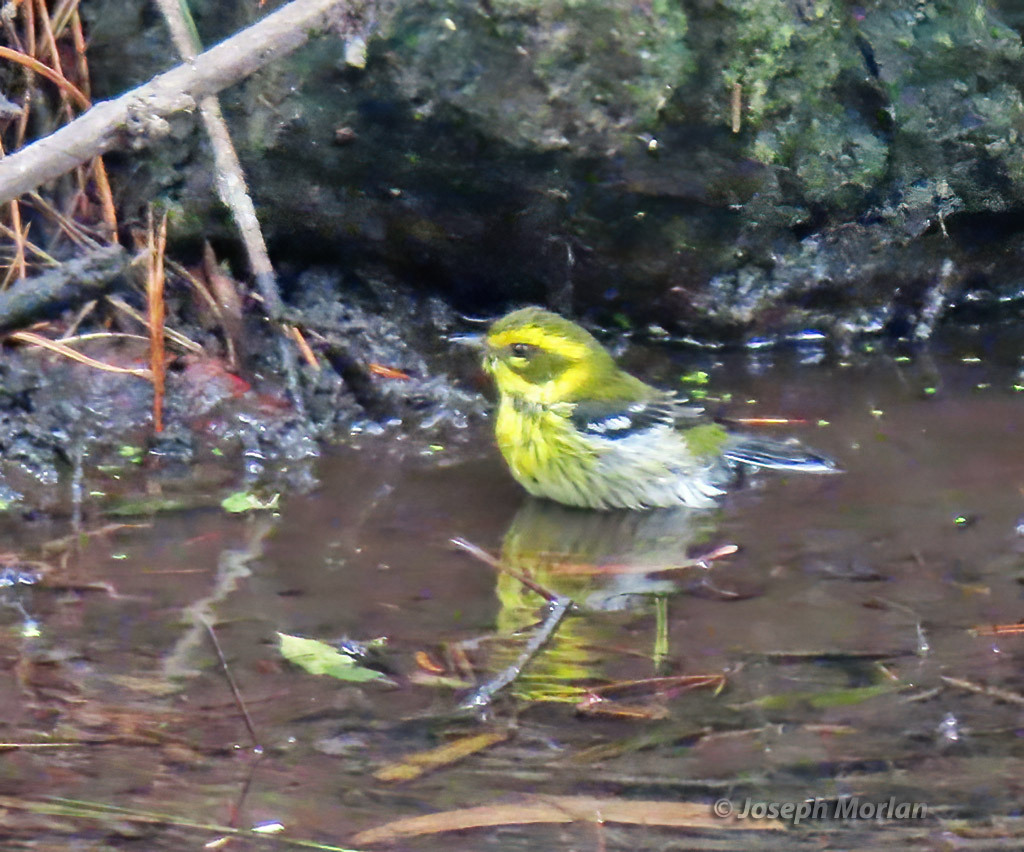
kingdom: Animalia
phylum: Chordata
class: Aves
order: Passeriformes
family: Parulidae
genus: Setophaga
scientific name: Setophaga townsendi
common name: Townsend's warbler
